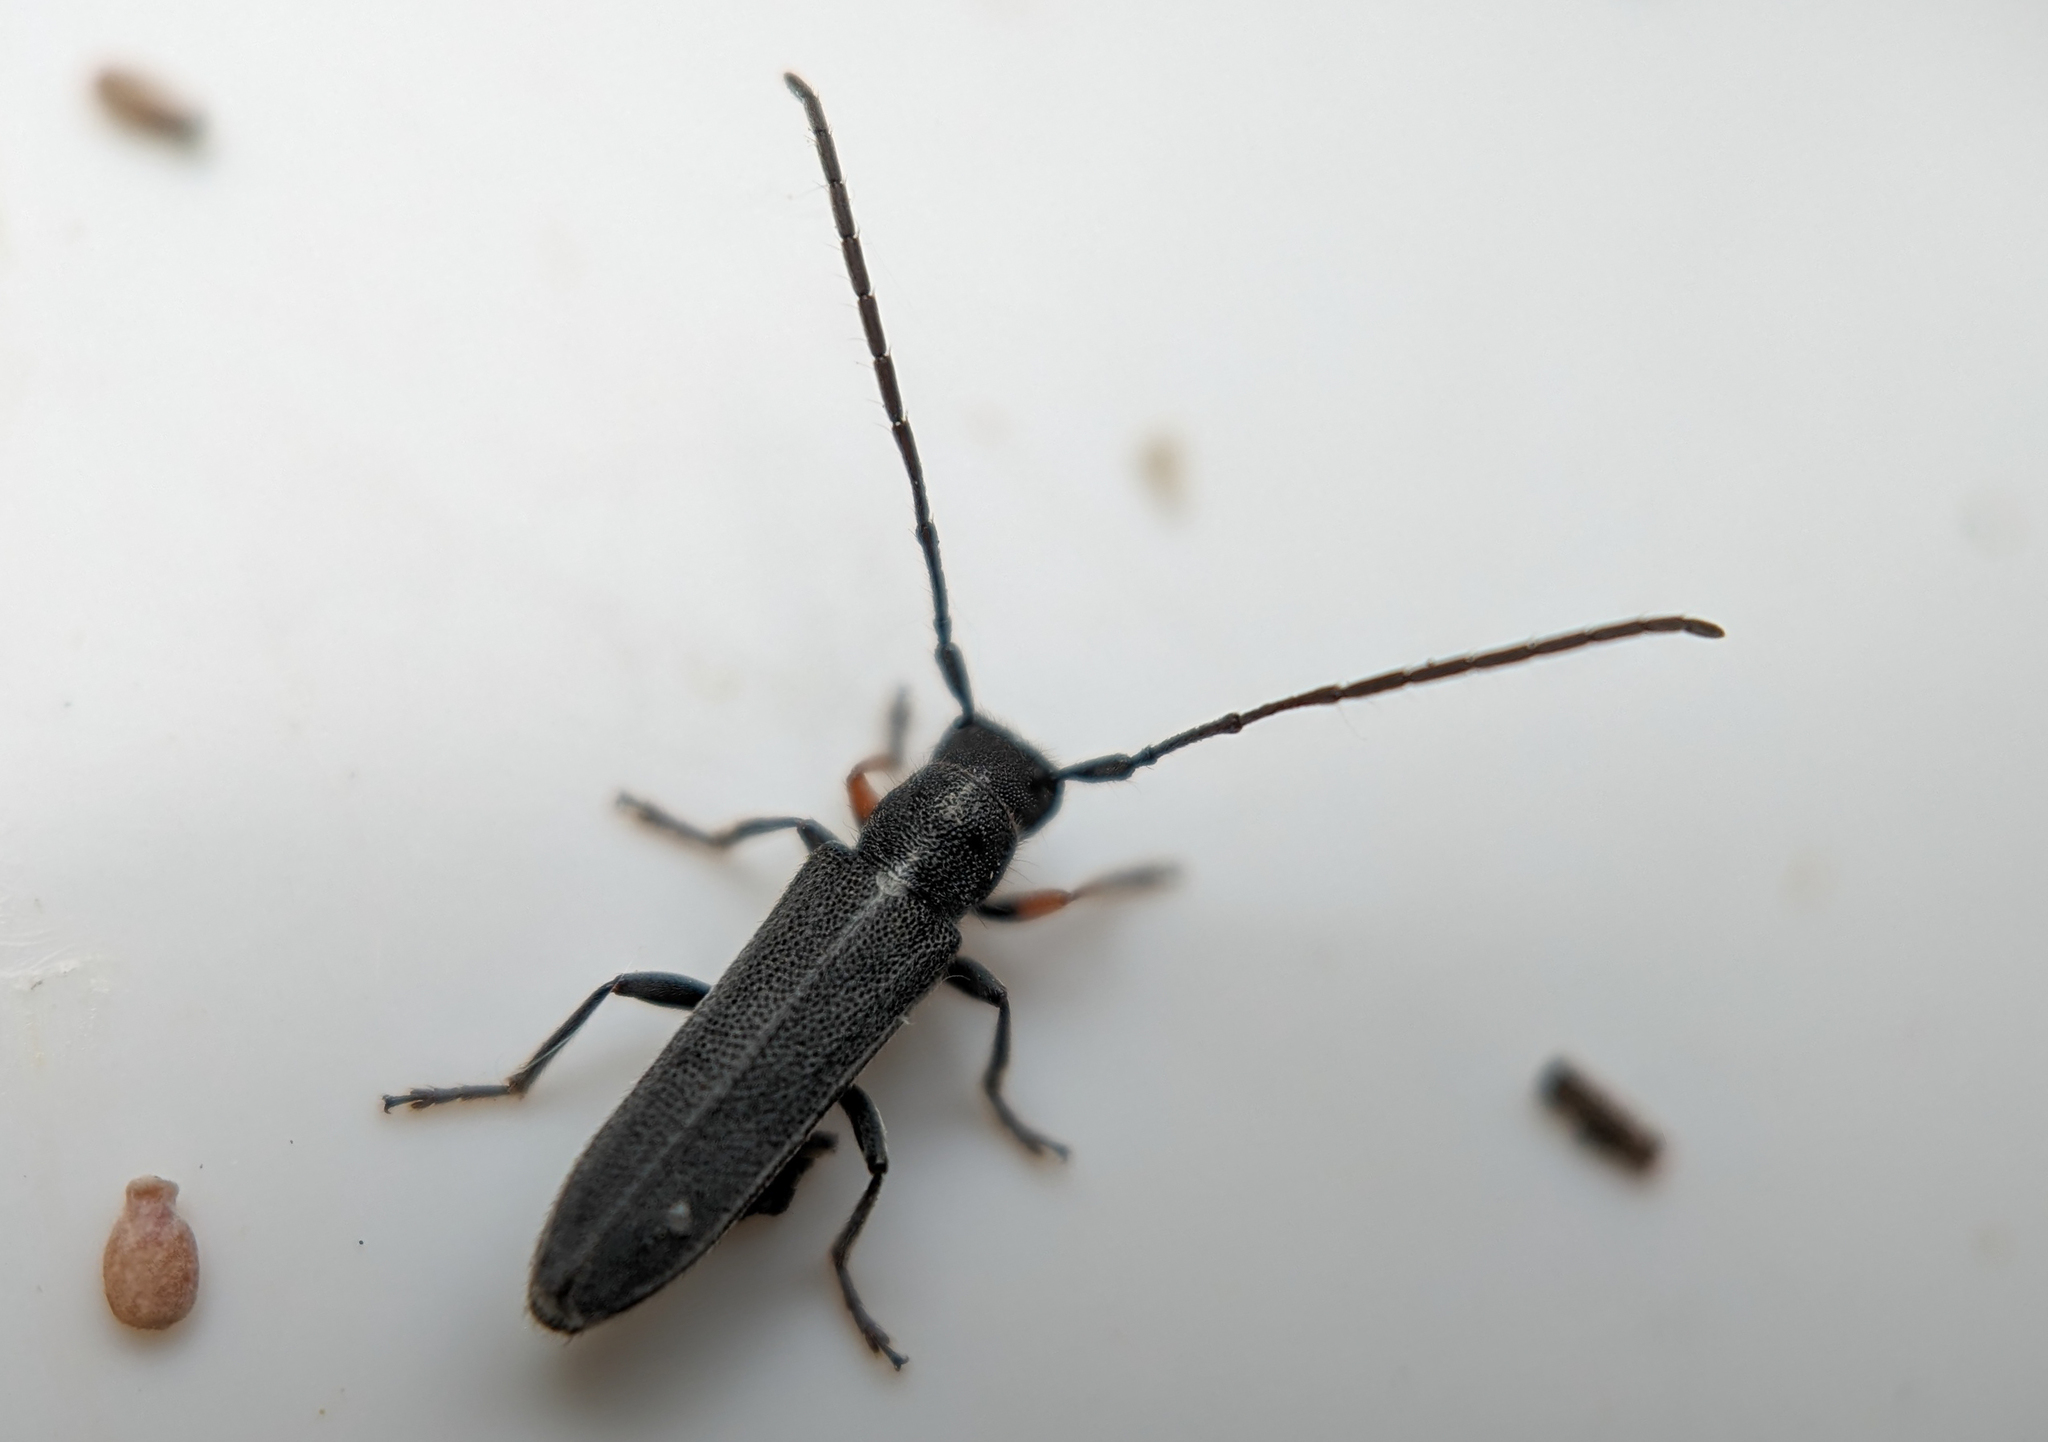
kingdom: Animalia
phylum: Arthropoda
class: Insecta
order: Coleoptera
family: Cerambycidae
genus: Phytoecia
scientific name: Phytoecia cylindrica
